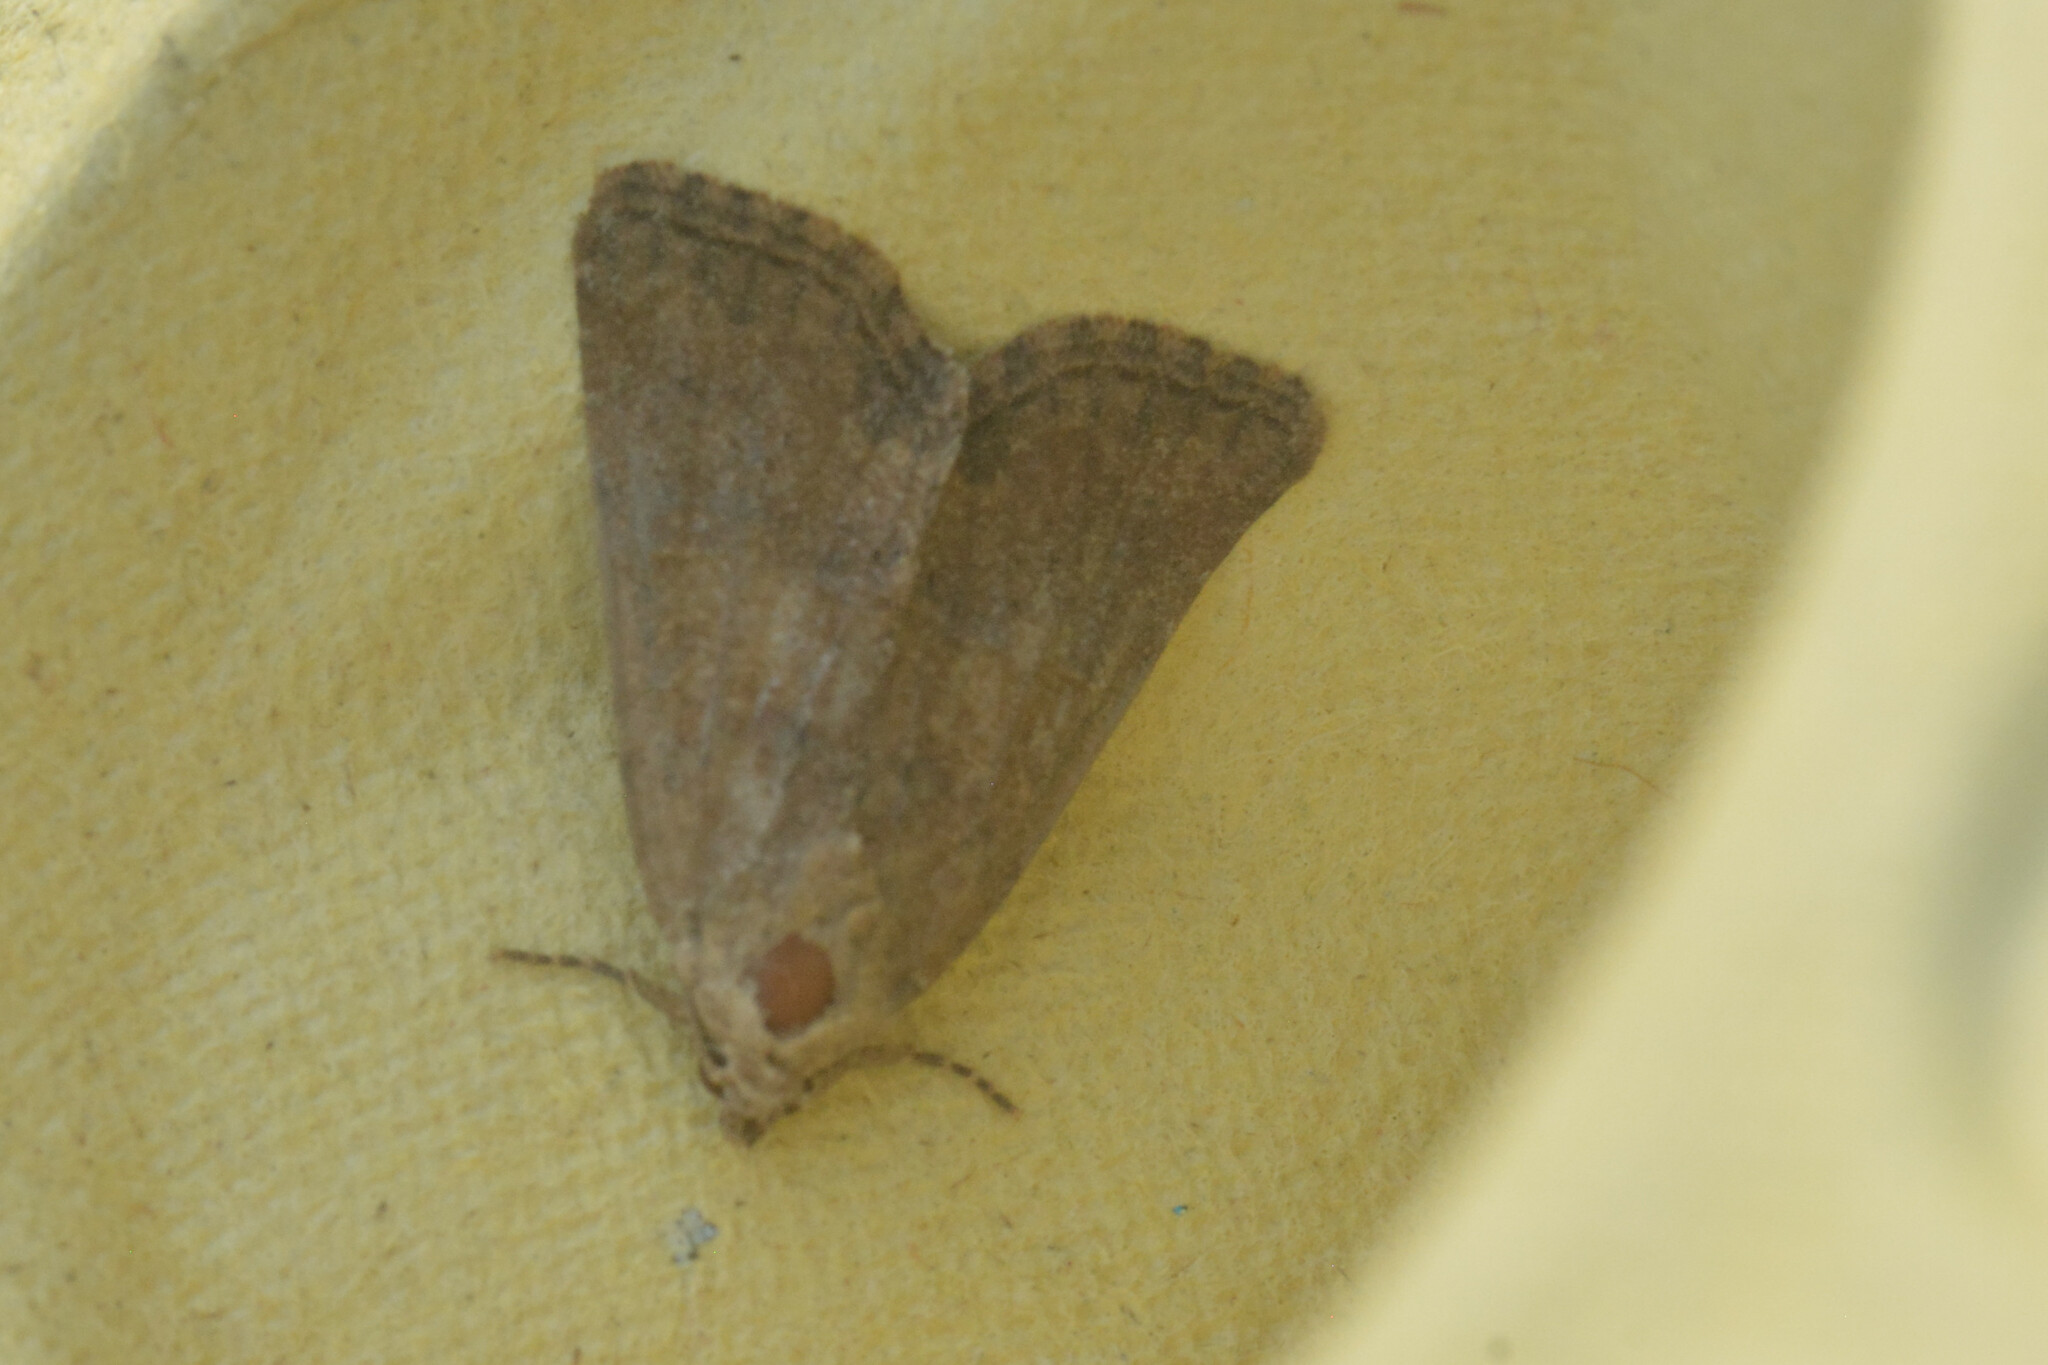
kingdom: Animalia
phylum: Arthropoda
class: Insecta
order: Lepidoptera
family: Noctuidae
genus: Mesoligia
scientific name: Mesoligia furuncula
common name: Cloaked minor
